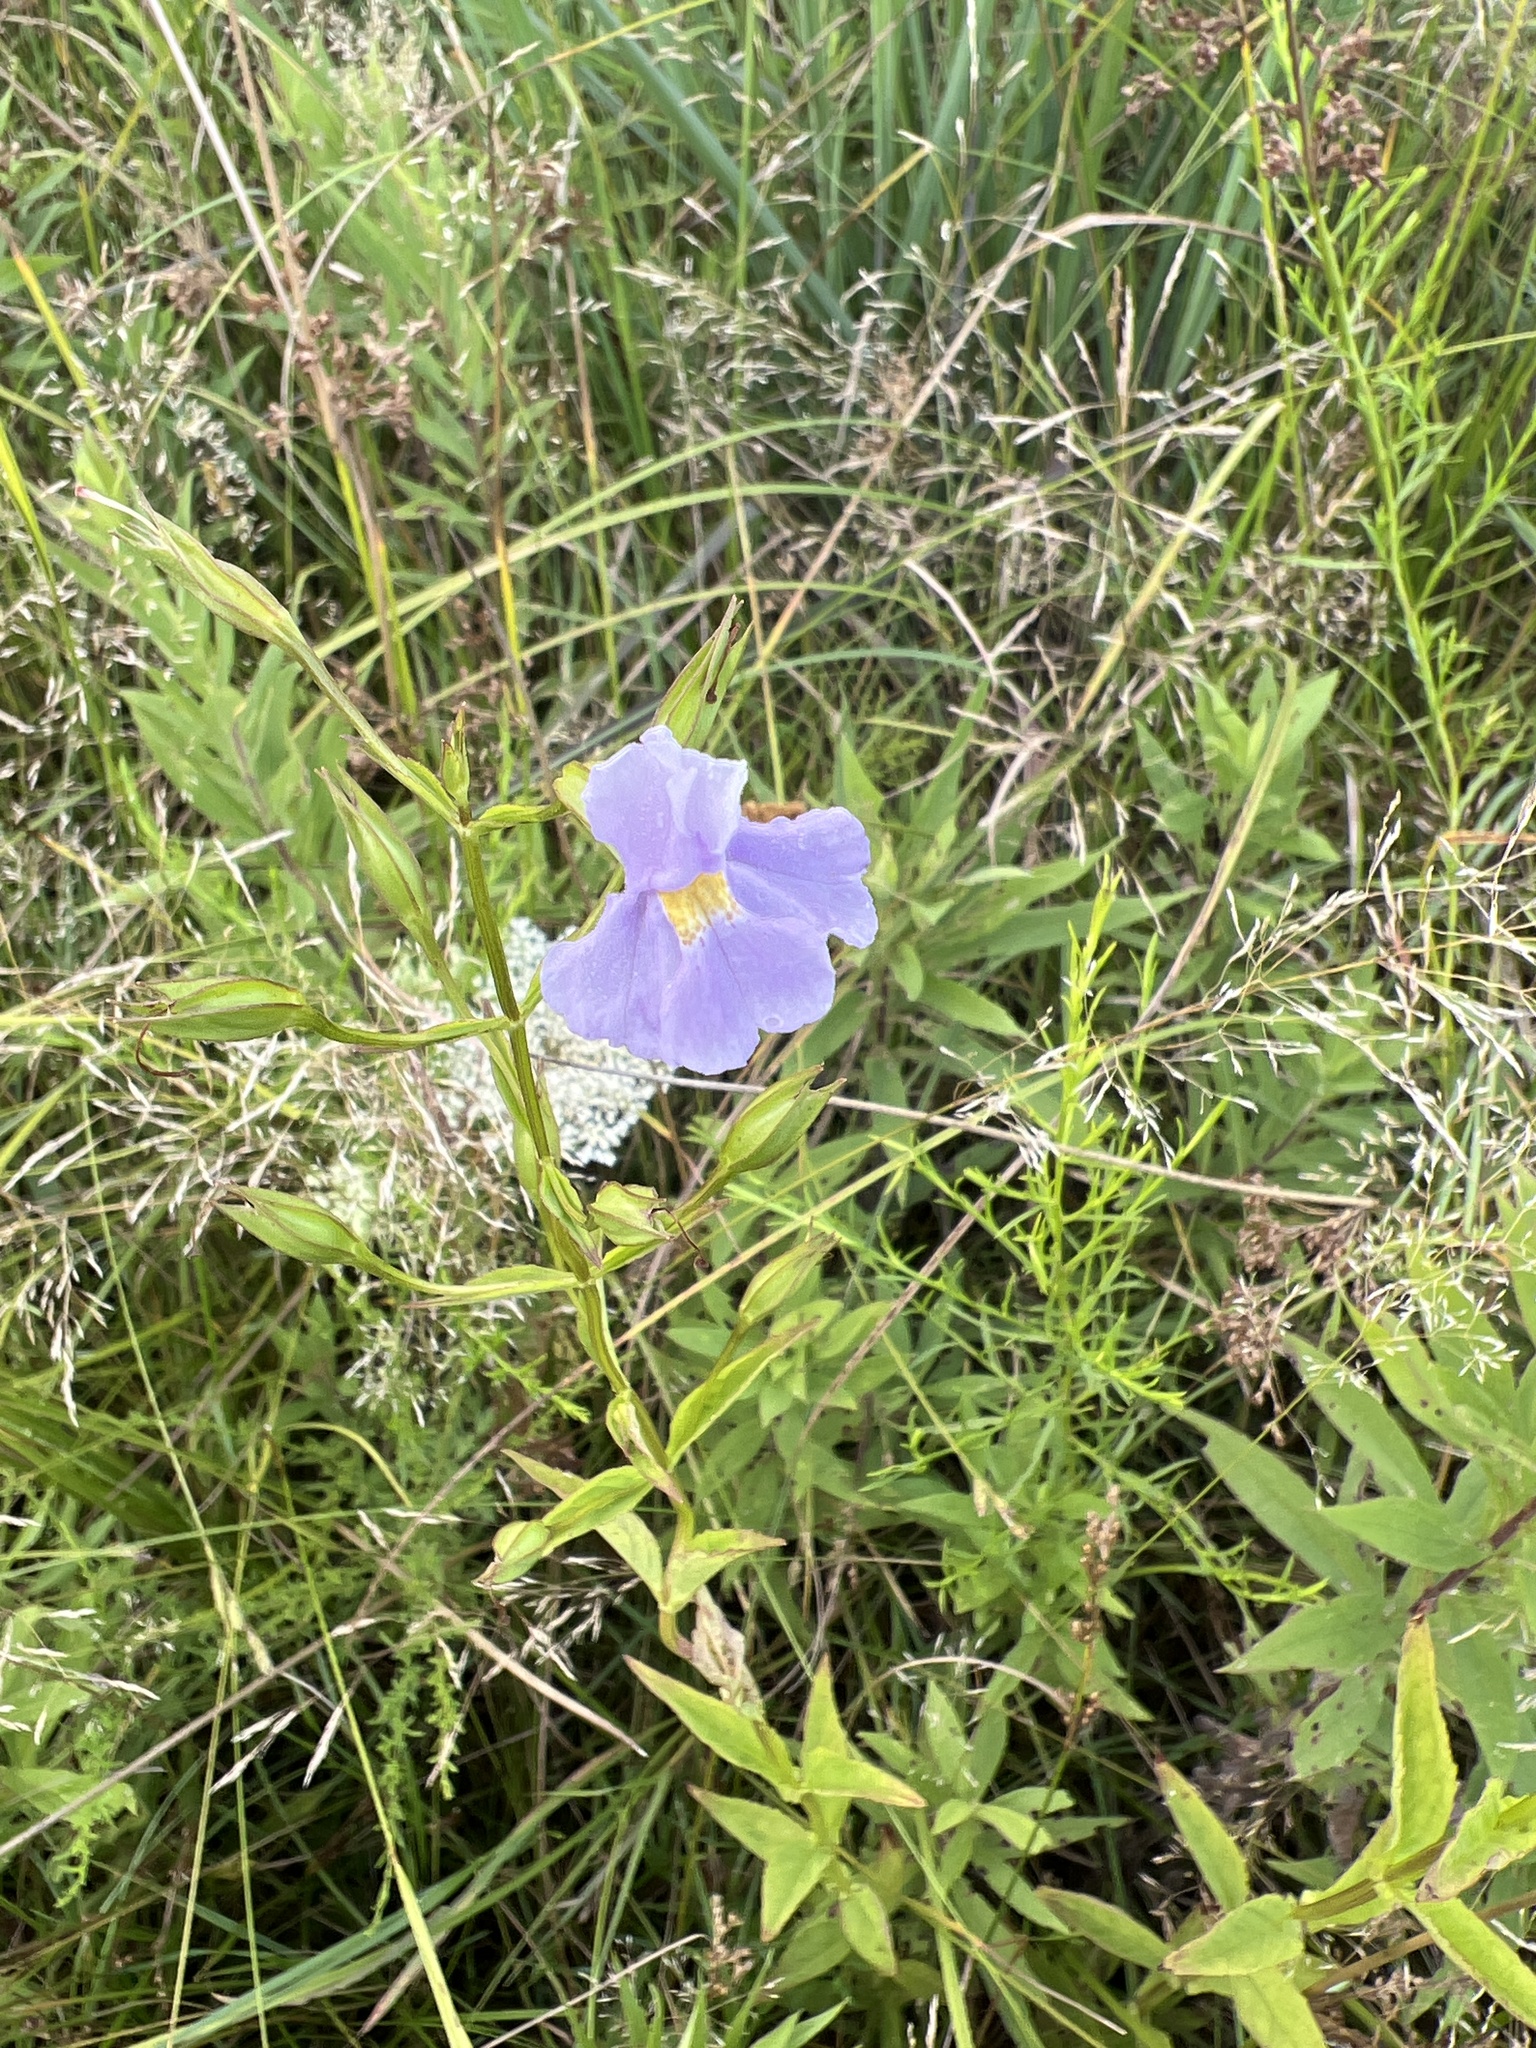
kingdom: Plantae
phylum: Tracheophyta
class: Magnoliopsida
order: Lamiales
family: Phrymaceae
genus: Mimulus
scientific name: Mimulus ringens
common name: Allegheny monkeyflower
